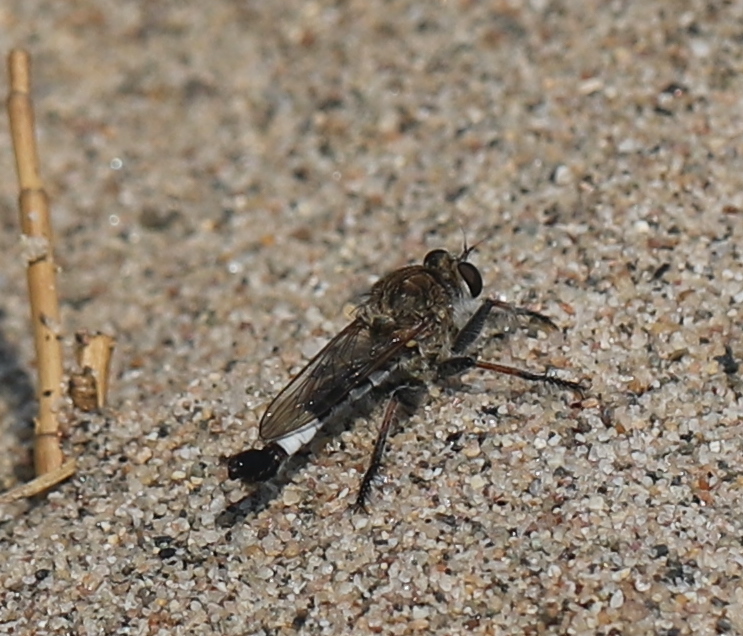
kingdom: Animalia
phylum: Arthropoda
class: Insecta
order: Diptera
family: Asilidae
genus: Efferia
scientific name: Efferia albibarbis
